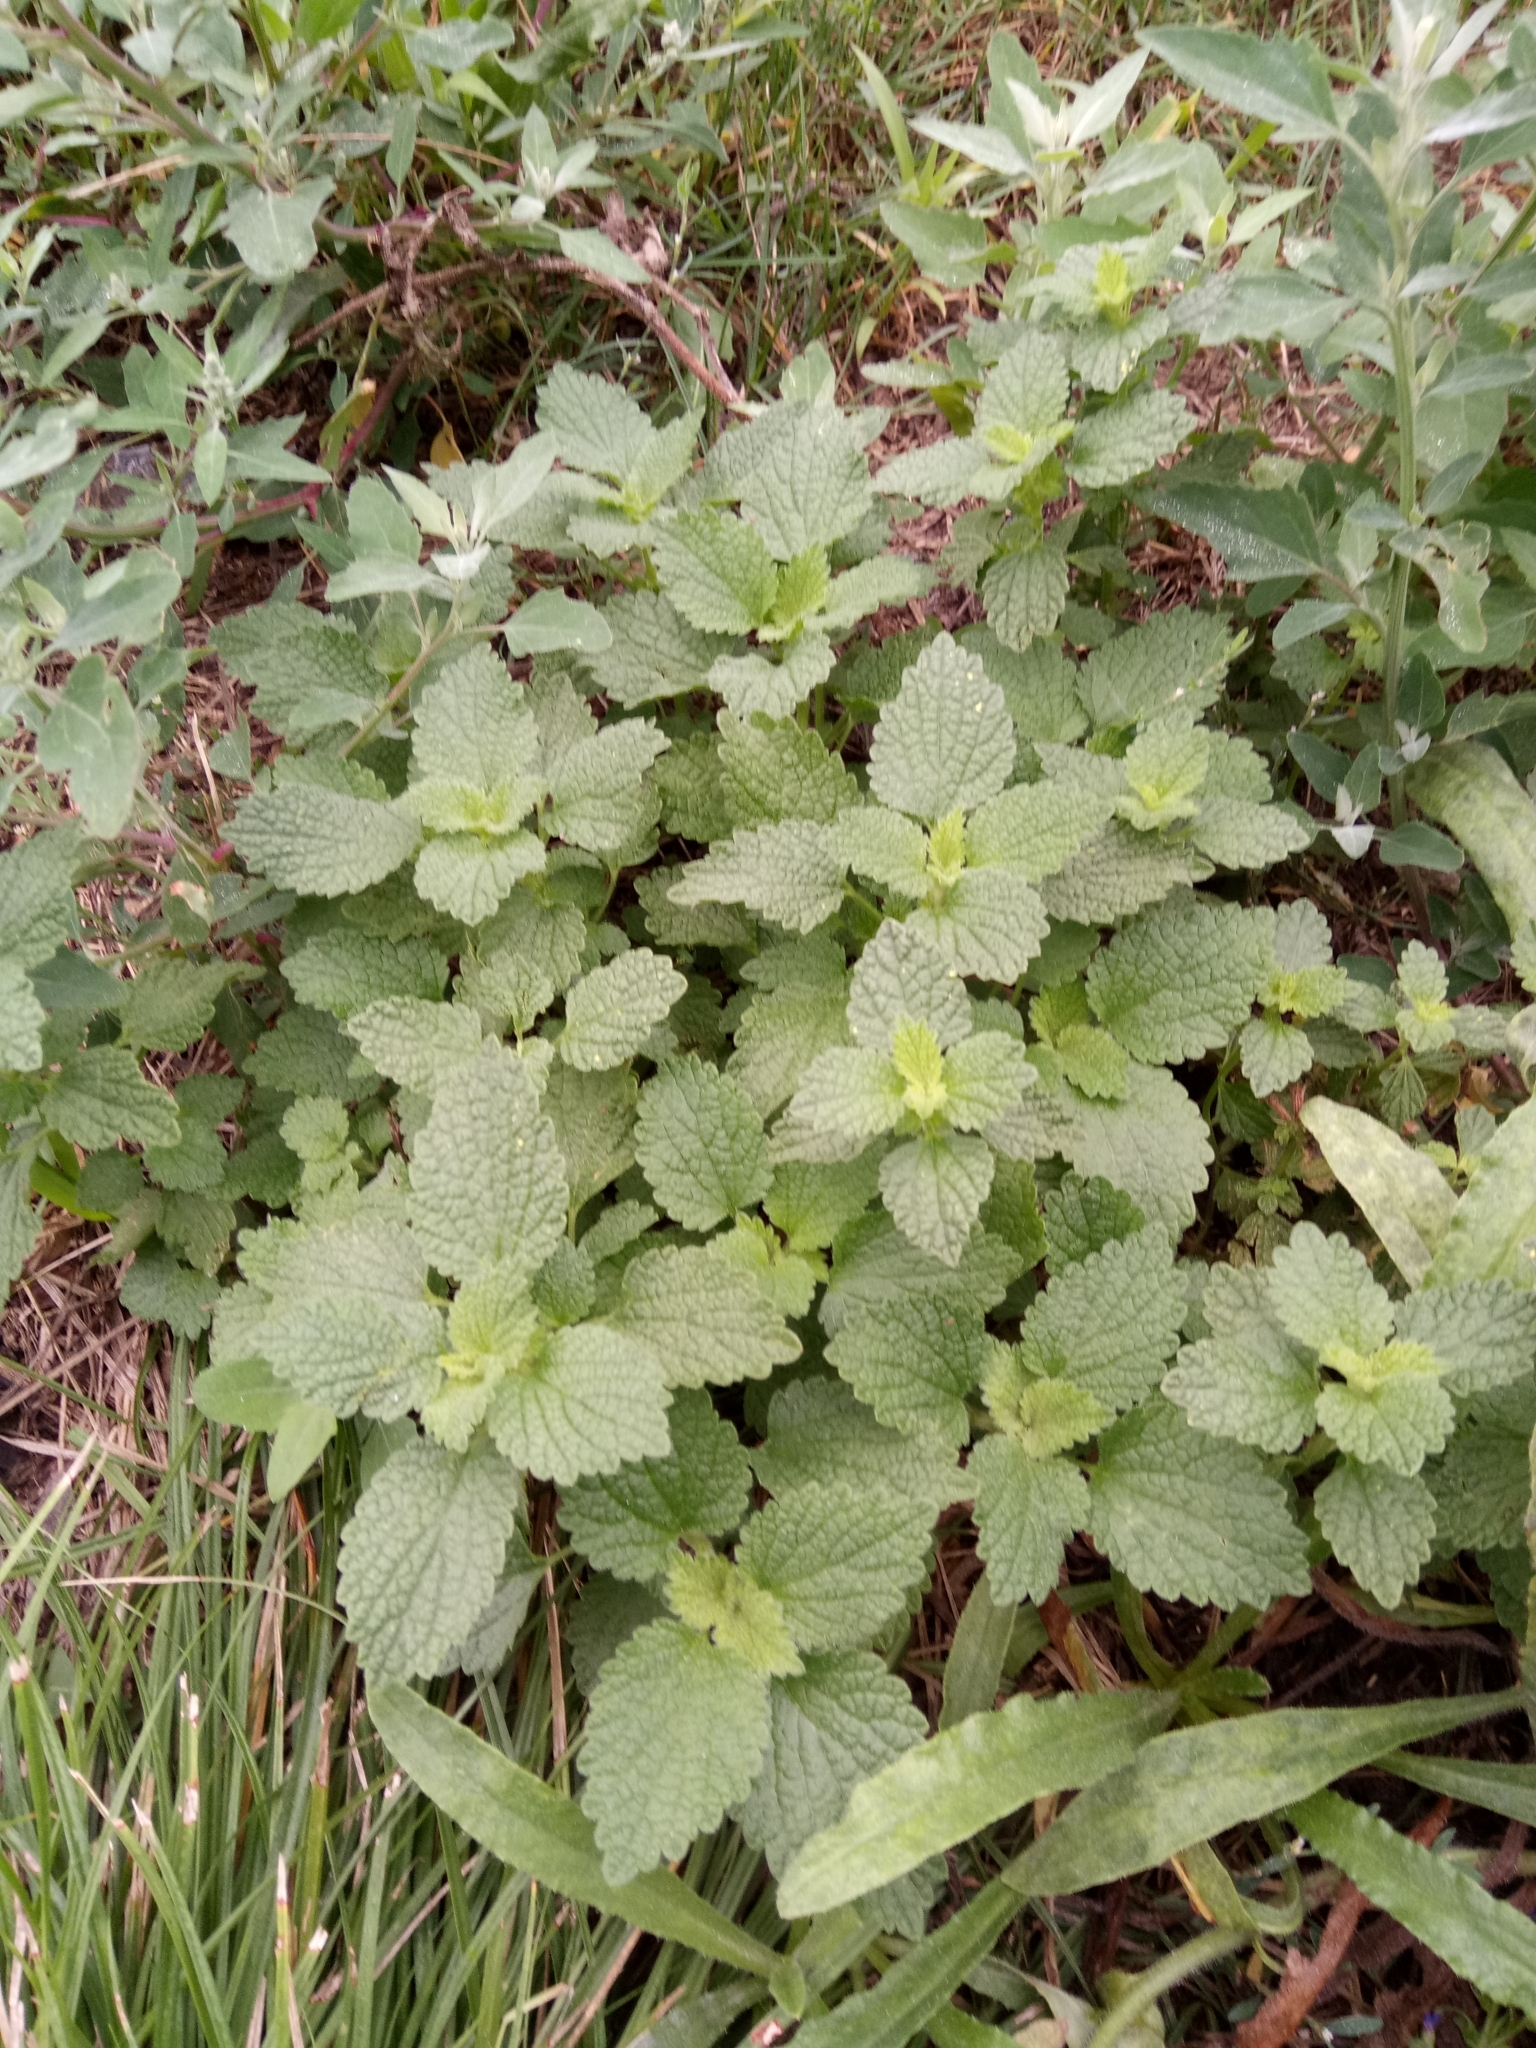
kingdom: Plantae
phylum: Tracheophyta
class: Magnoliopsida
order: Lamiales
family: Lamiaceae
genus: Melissa
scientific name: Melissa officinalis
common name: Balm
